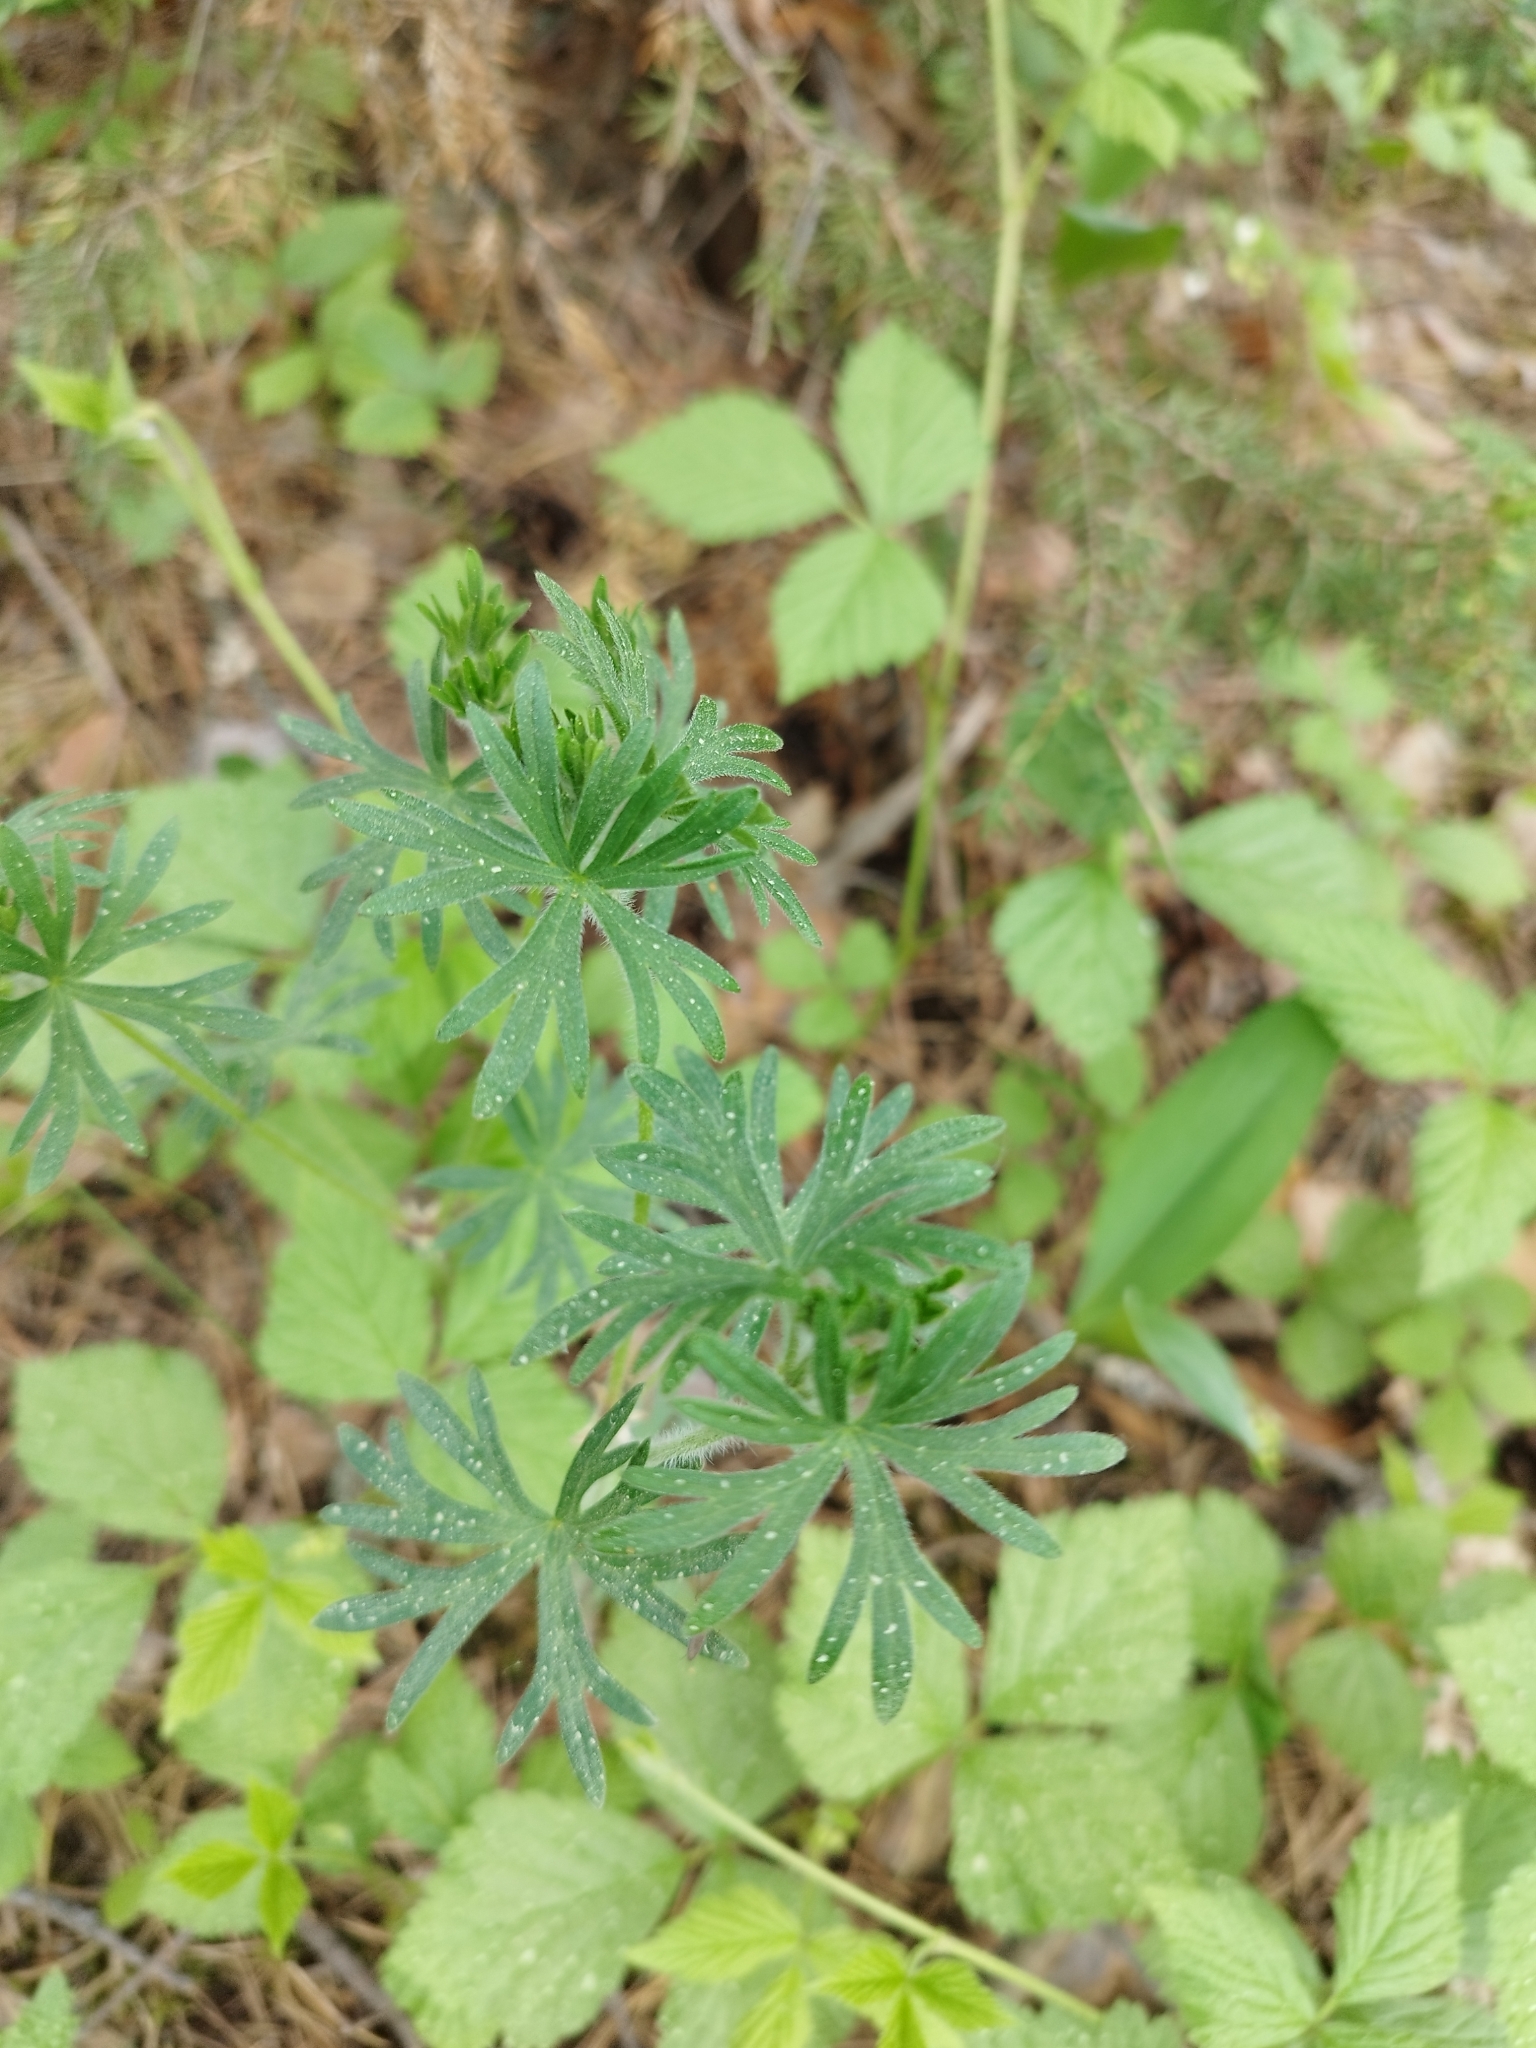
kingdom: Plantae
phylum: Tracheophyta
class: Magnoliopsida
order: Geraniales
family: Geraniaceae
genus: Geranium
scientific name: Geranium sanguineum
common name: Bloody crane's-bill
